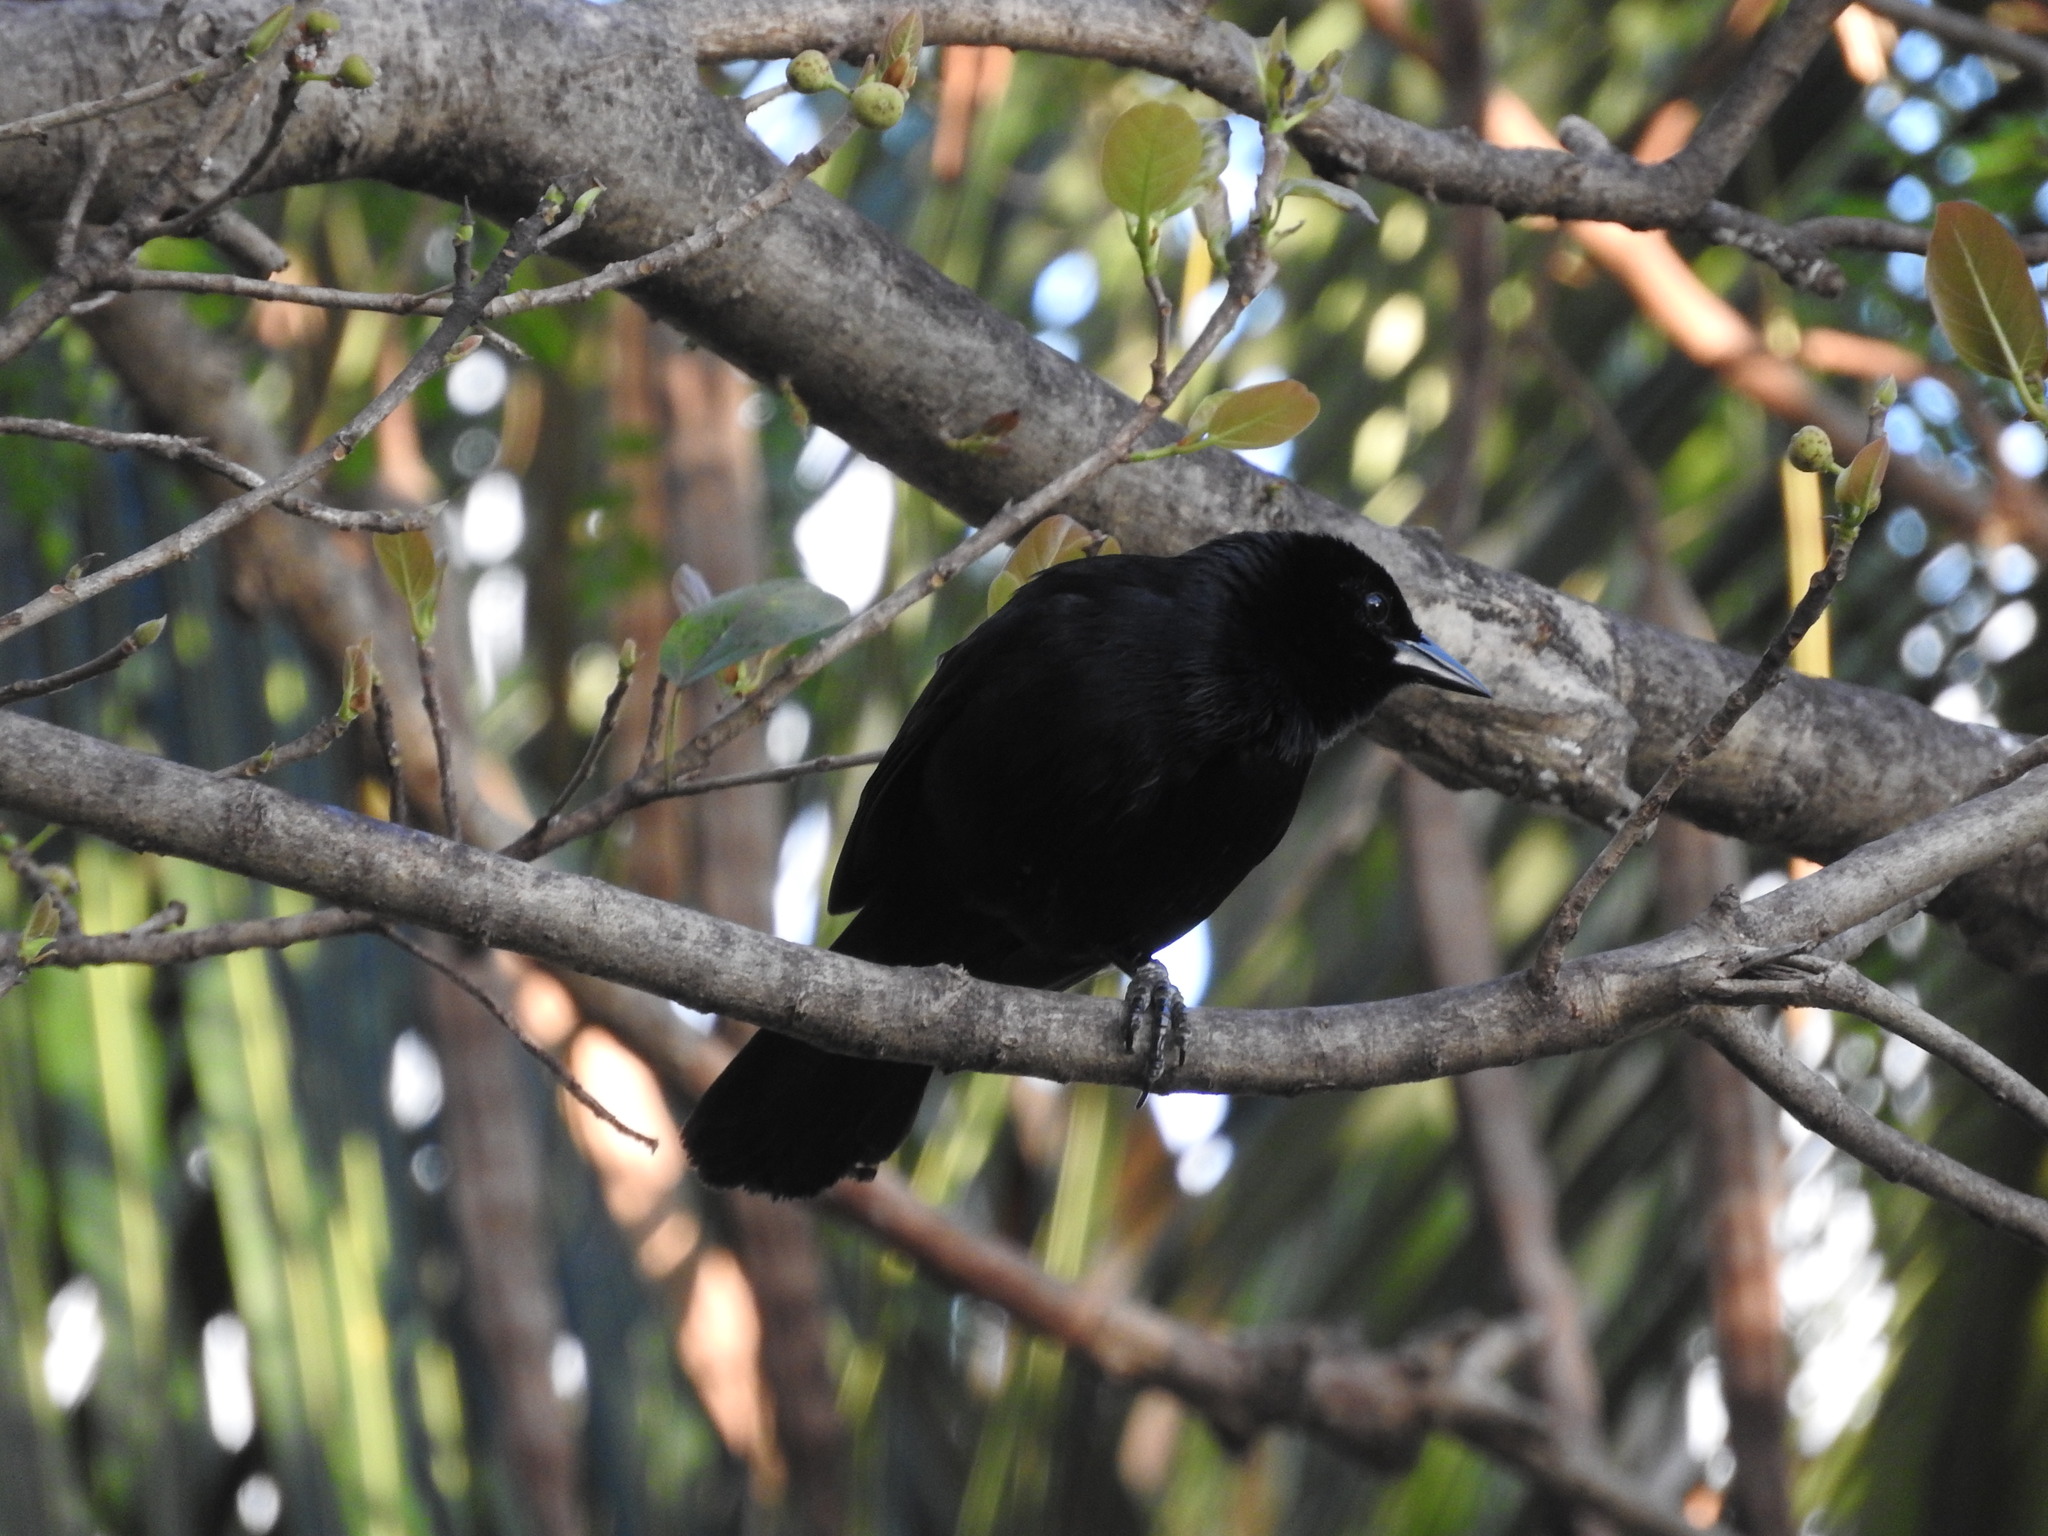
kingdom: Animalia
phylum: Chordata
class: Aves
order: Passeriformes
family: Icteridae
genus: Dives
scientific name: Dives dives
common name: Melodious blackbird
